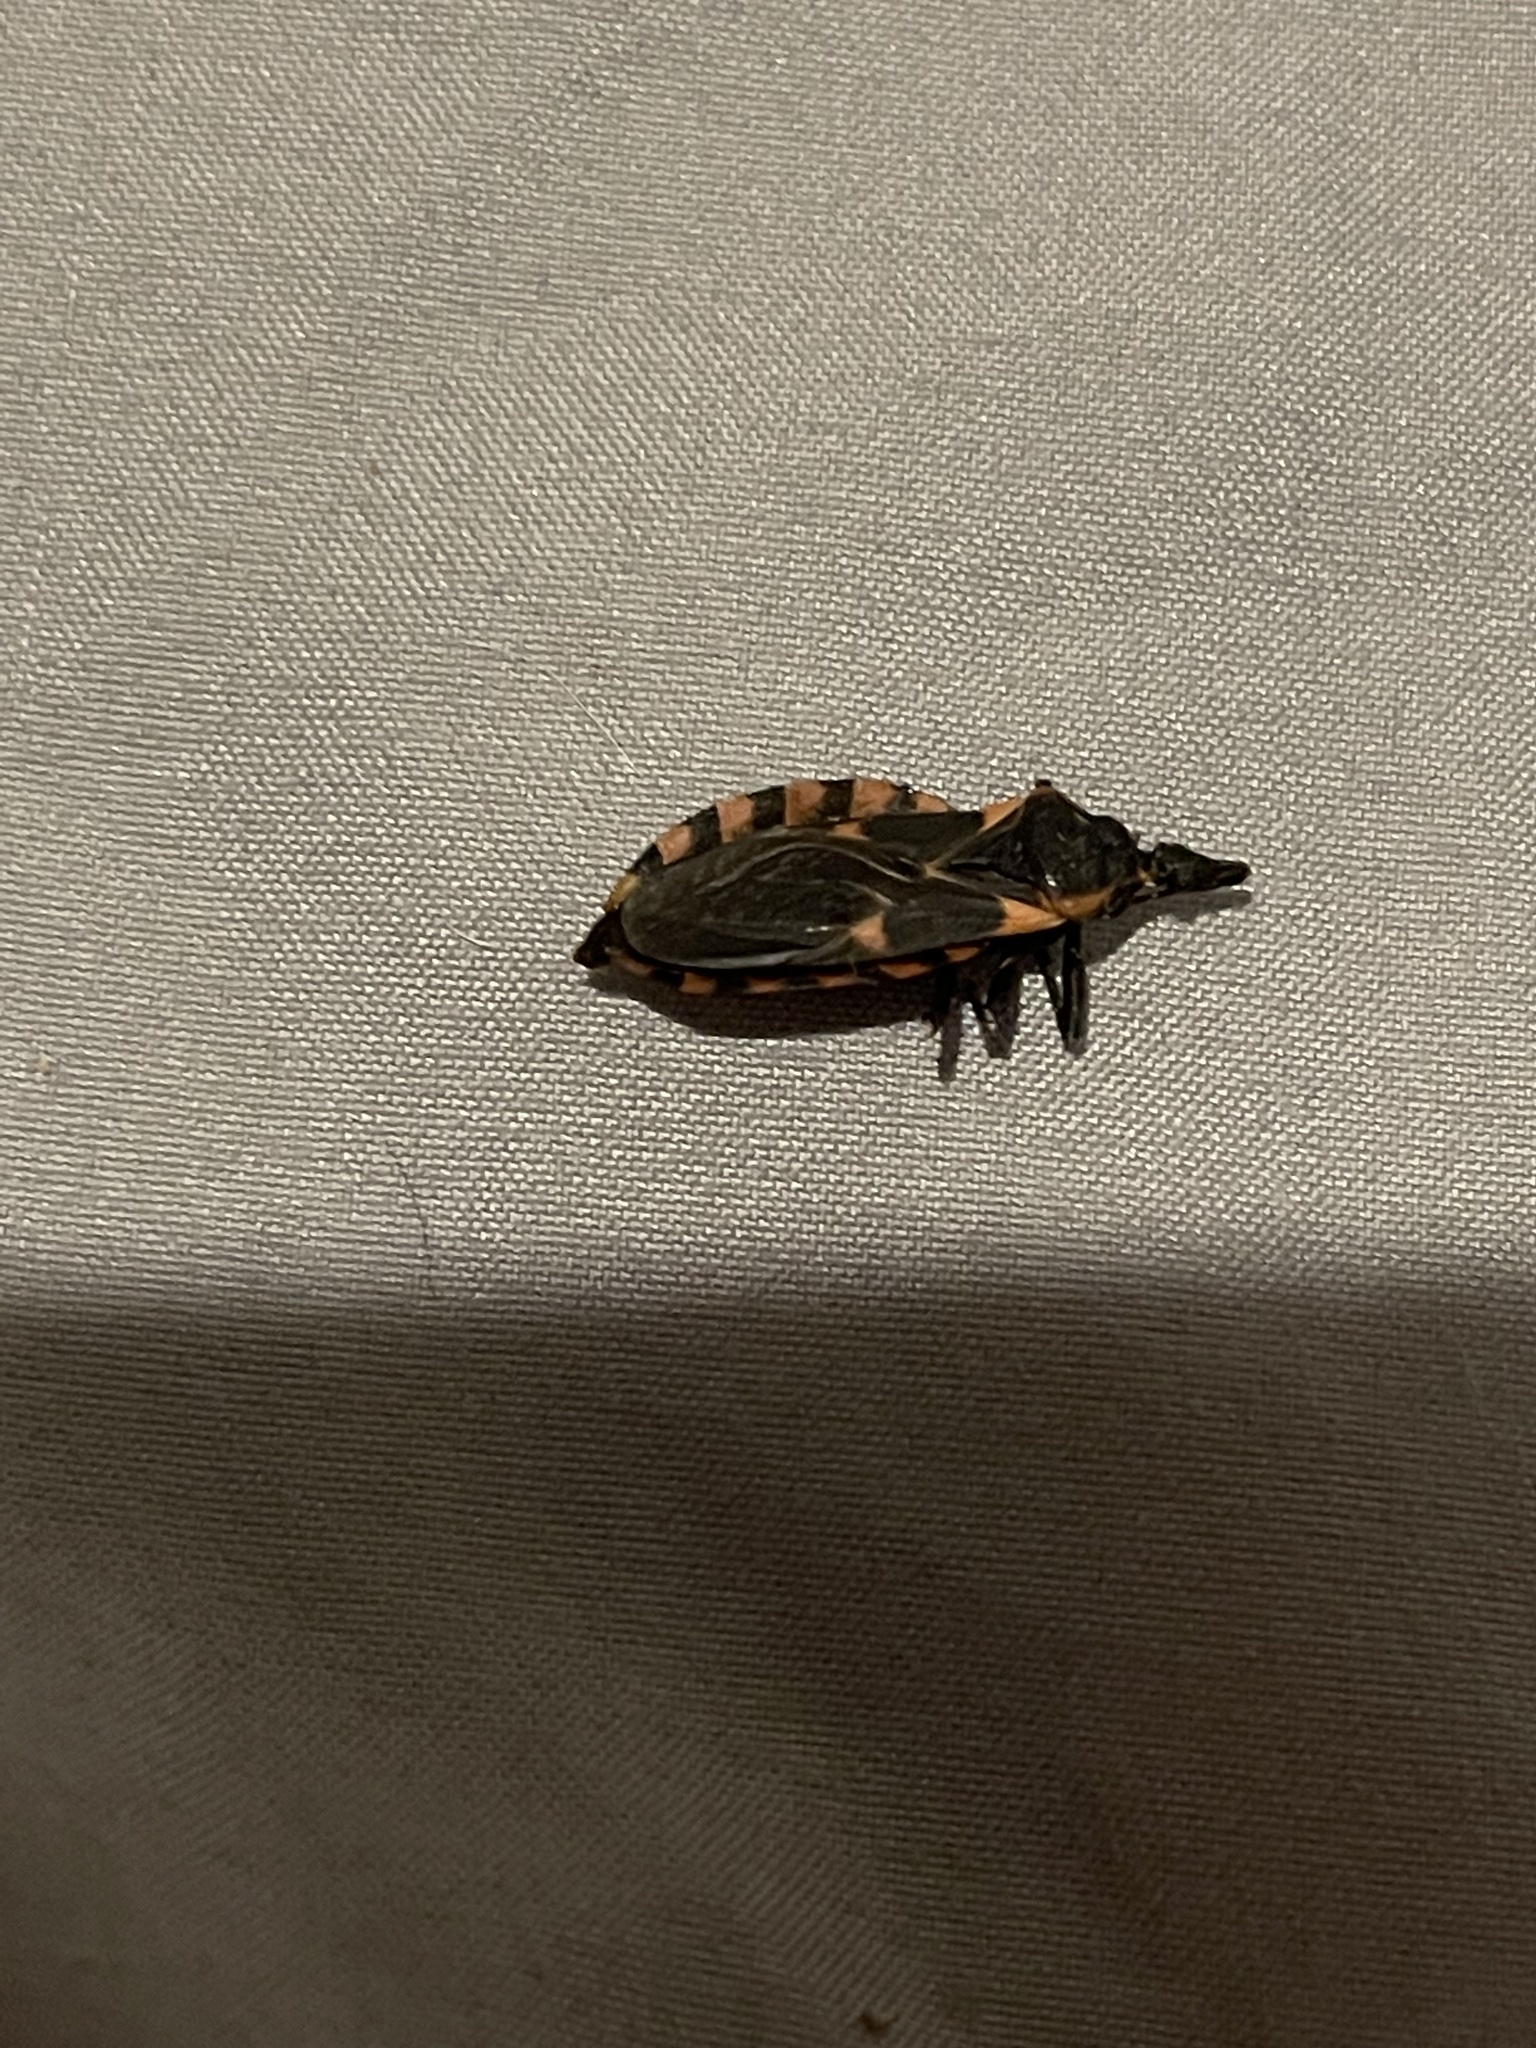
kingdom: Animalia
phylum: Arthropoda
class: Insecta
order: Hemiptera
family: Reduviidae
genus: Triatoma
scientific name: Triatoma sanguisuga
